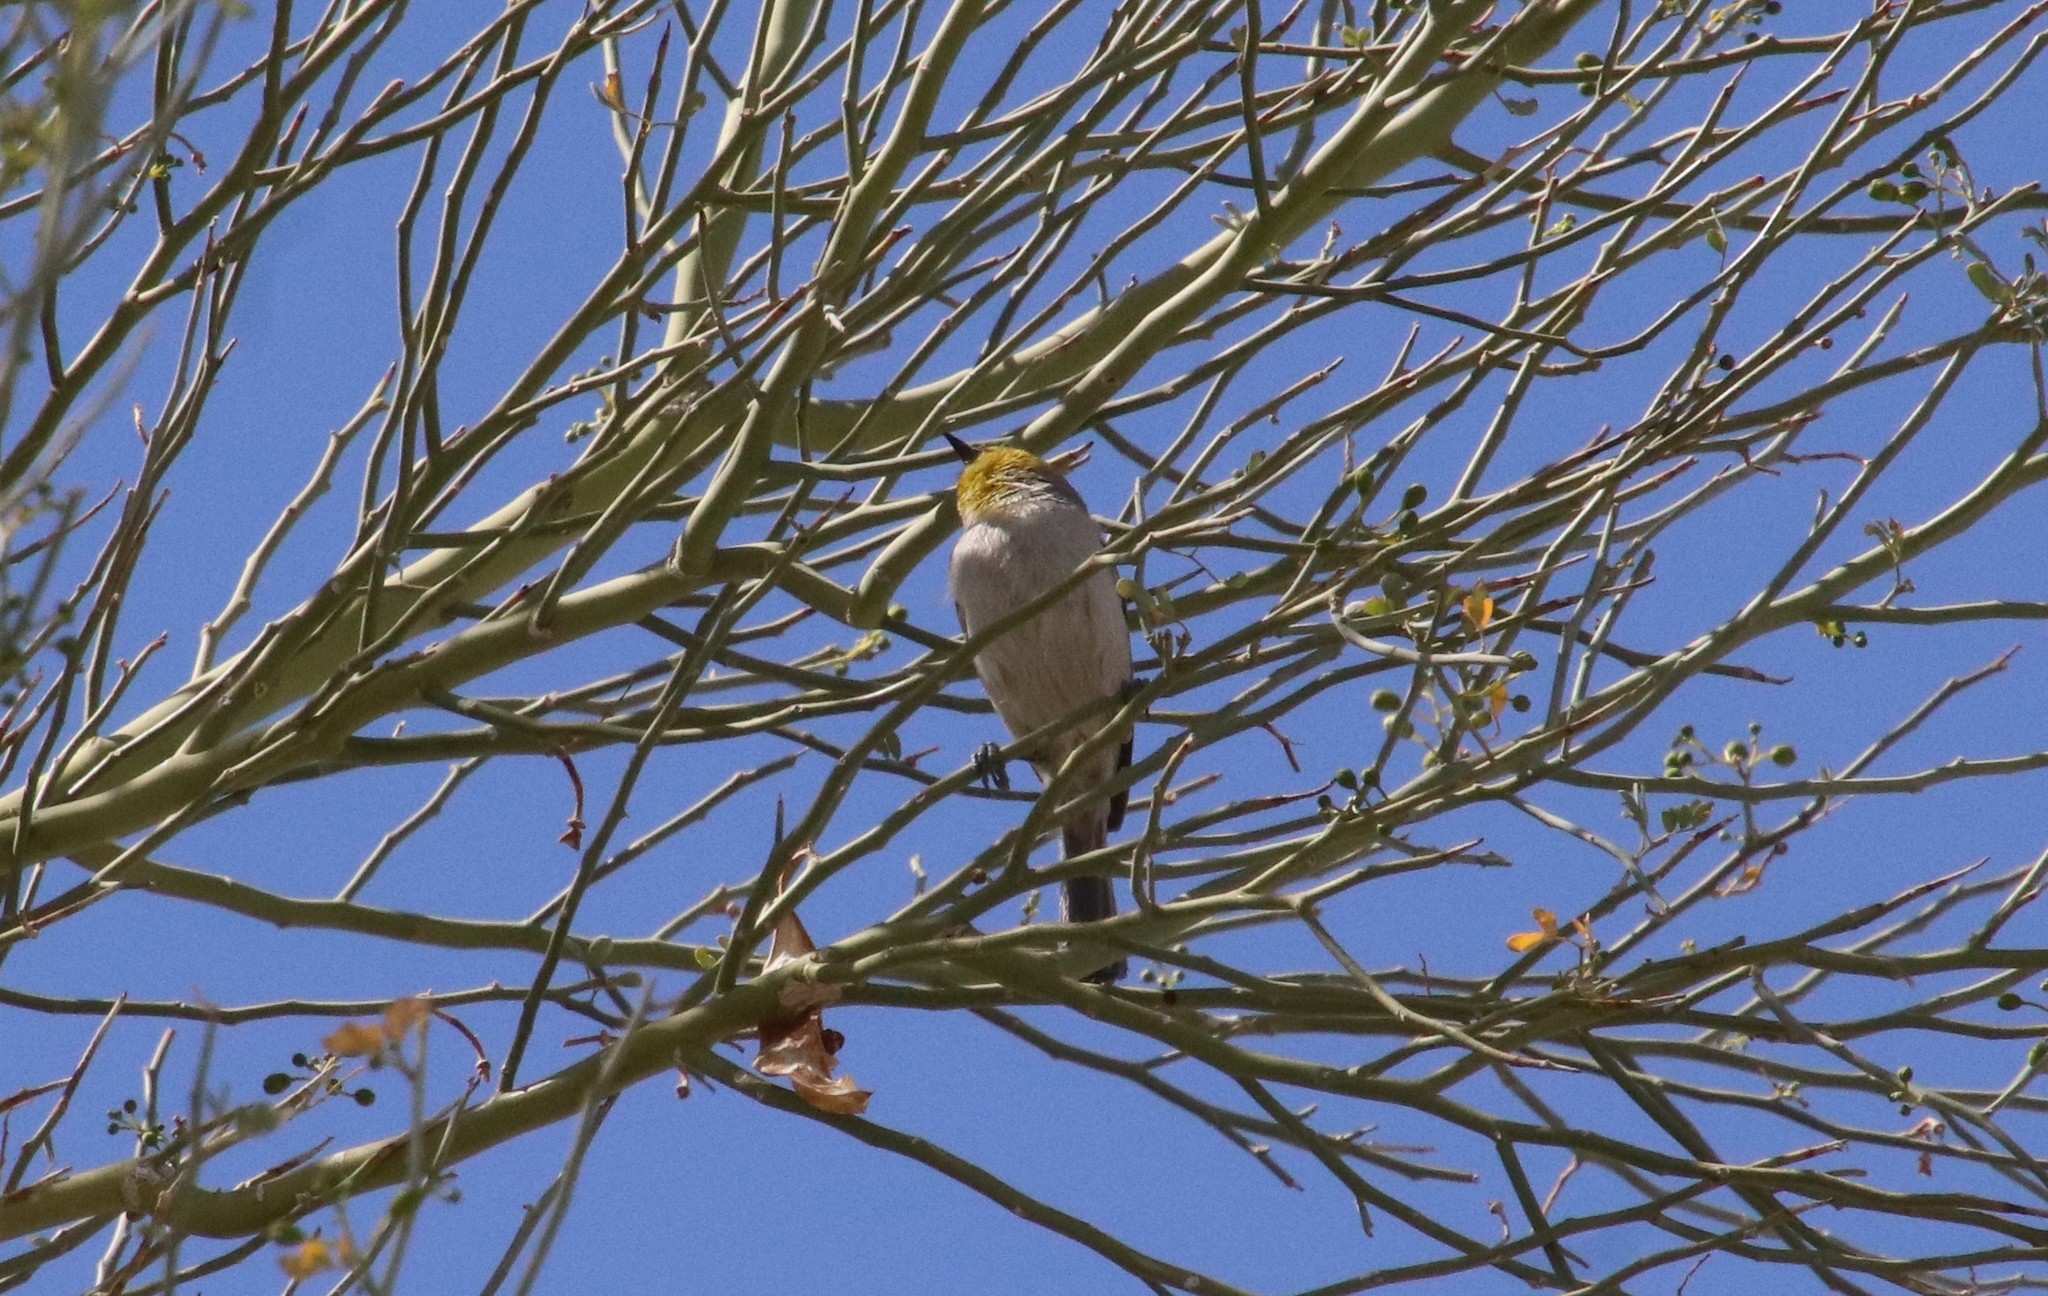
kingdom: Animalia
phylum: Chordata
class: Aves
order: Passeriformes
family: Remizidae
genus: Auriparus
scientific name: Auriparus flaviceps
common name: Verdin
